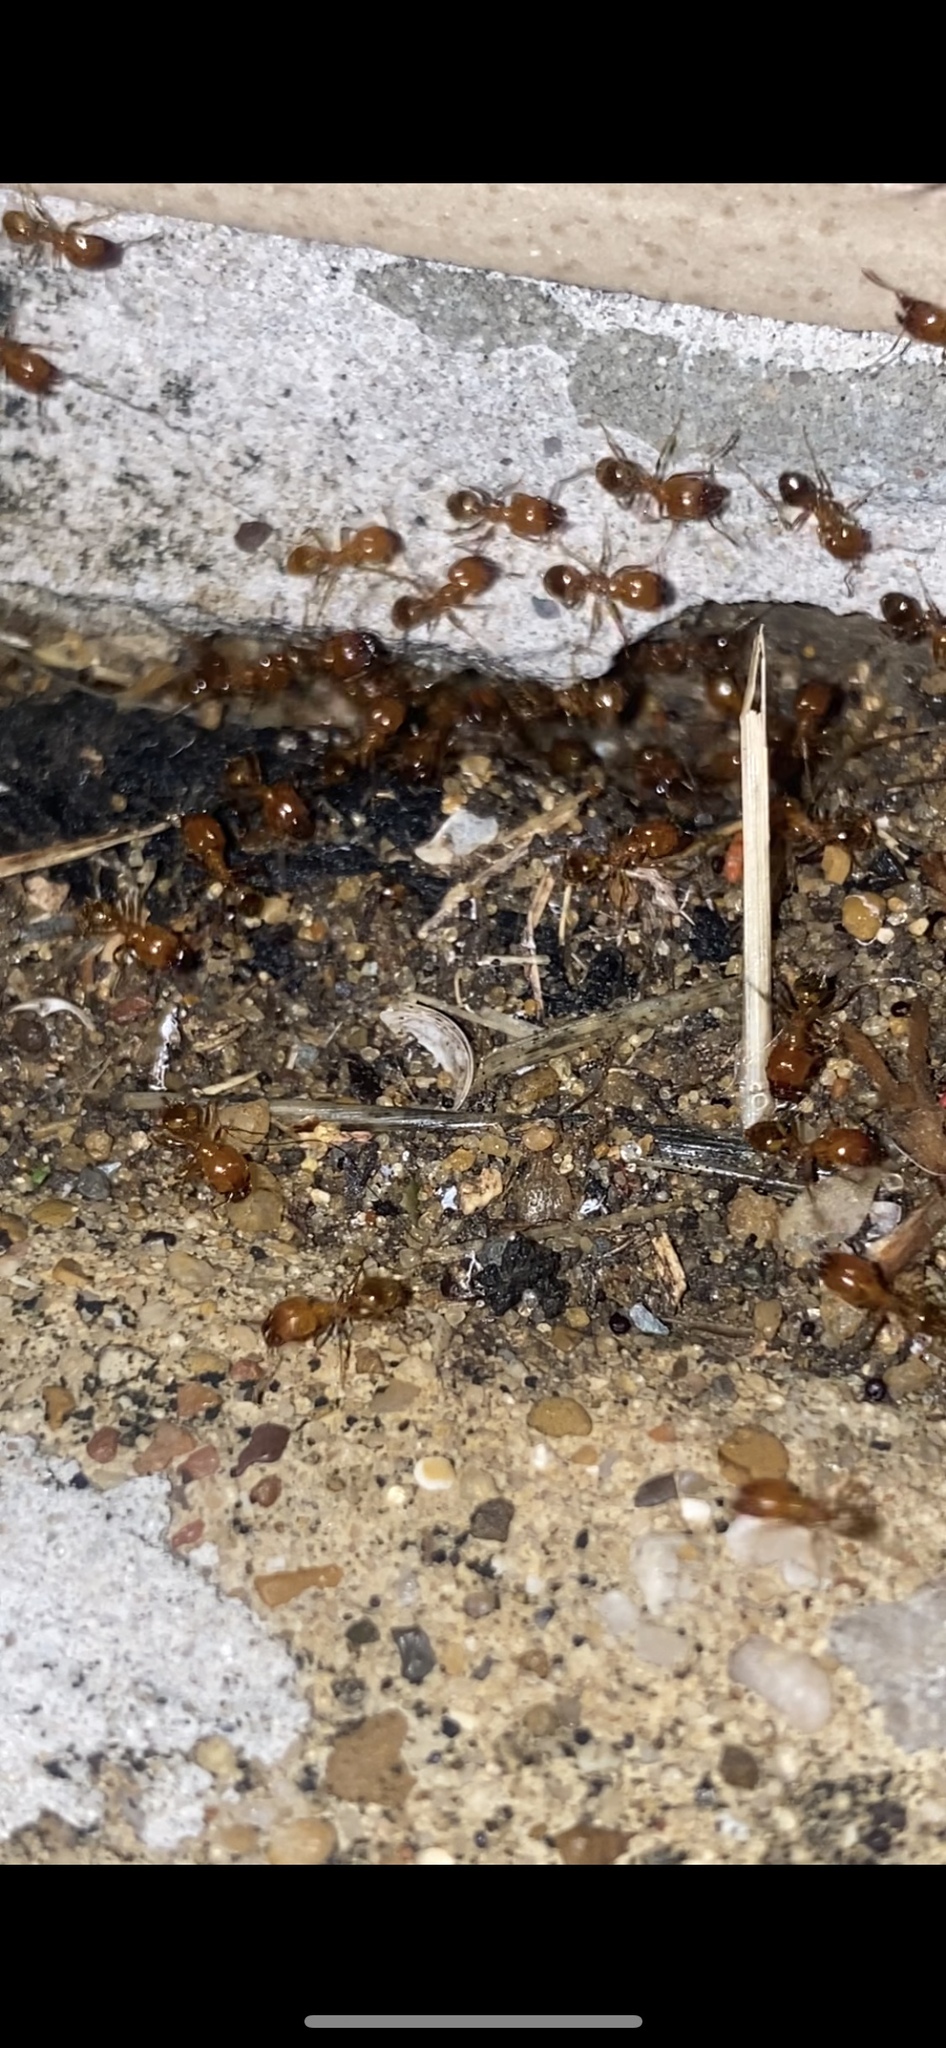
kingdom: Animalia
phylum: Arthropoda
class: Insecta
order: Hymenoptera
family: Formicidae
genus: Pheidole
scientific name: Pheidole dentata
